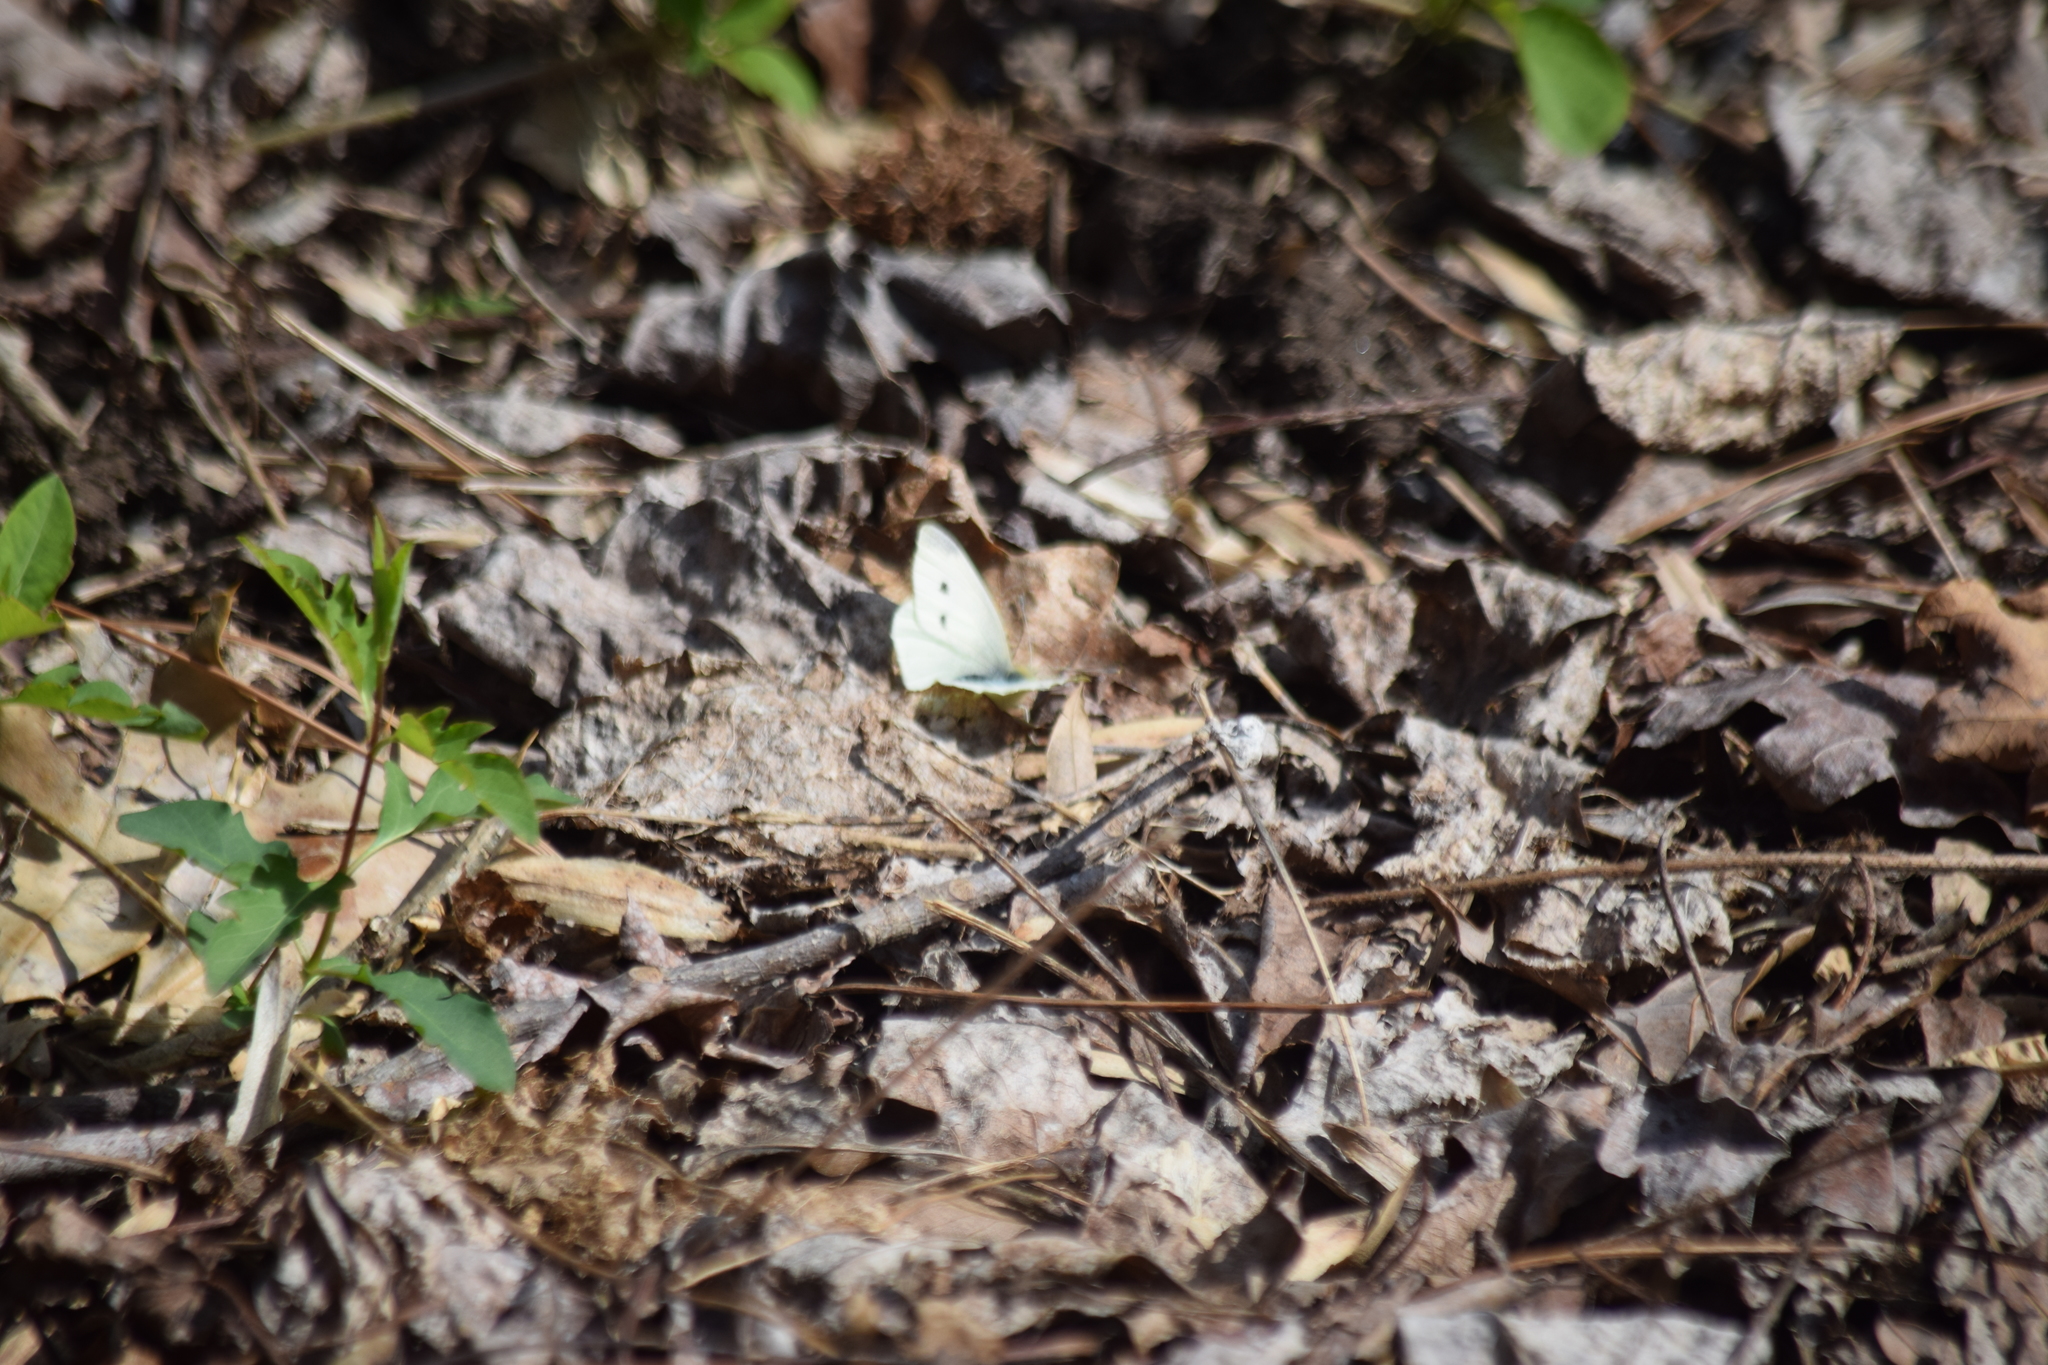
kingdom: Animalia
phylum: Arthropoda
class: Insecta
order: Lepidoptera
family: Pieridae
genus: Pieris
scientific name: Pieris rapae
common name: Small white
